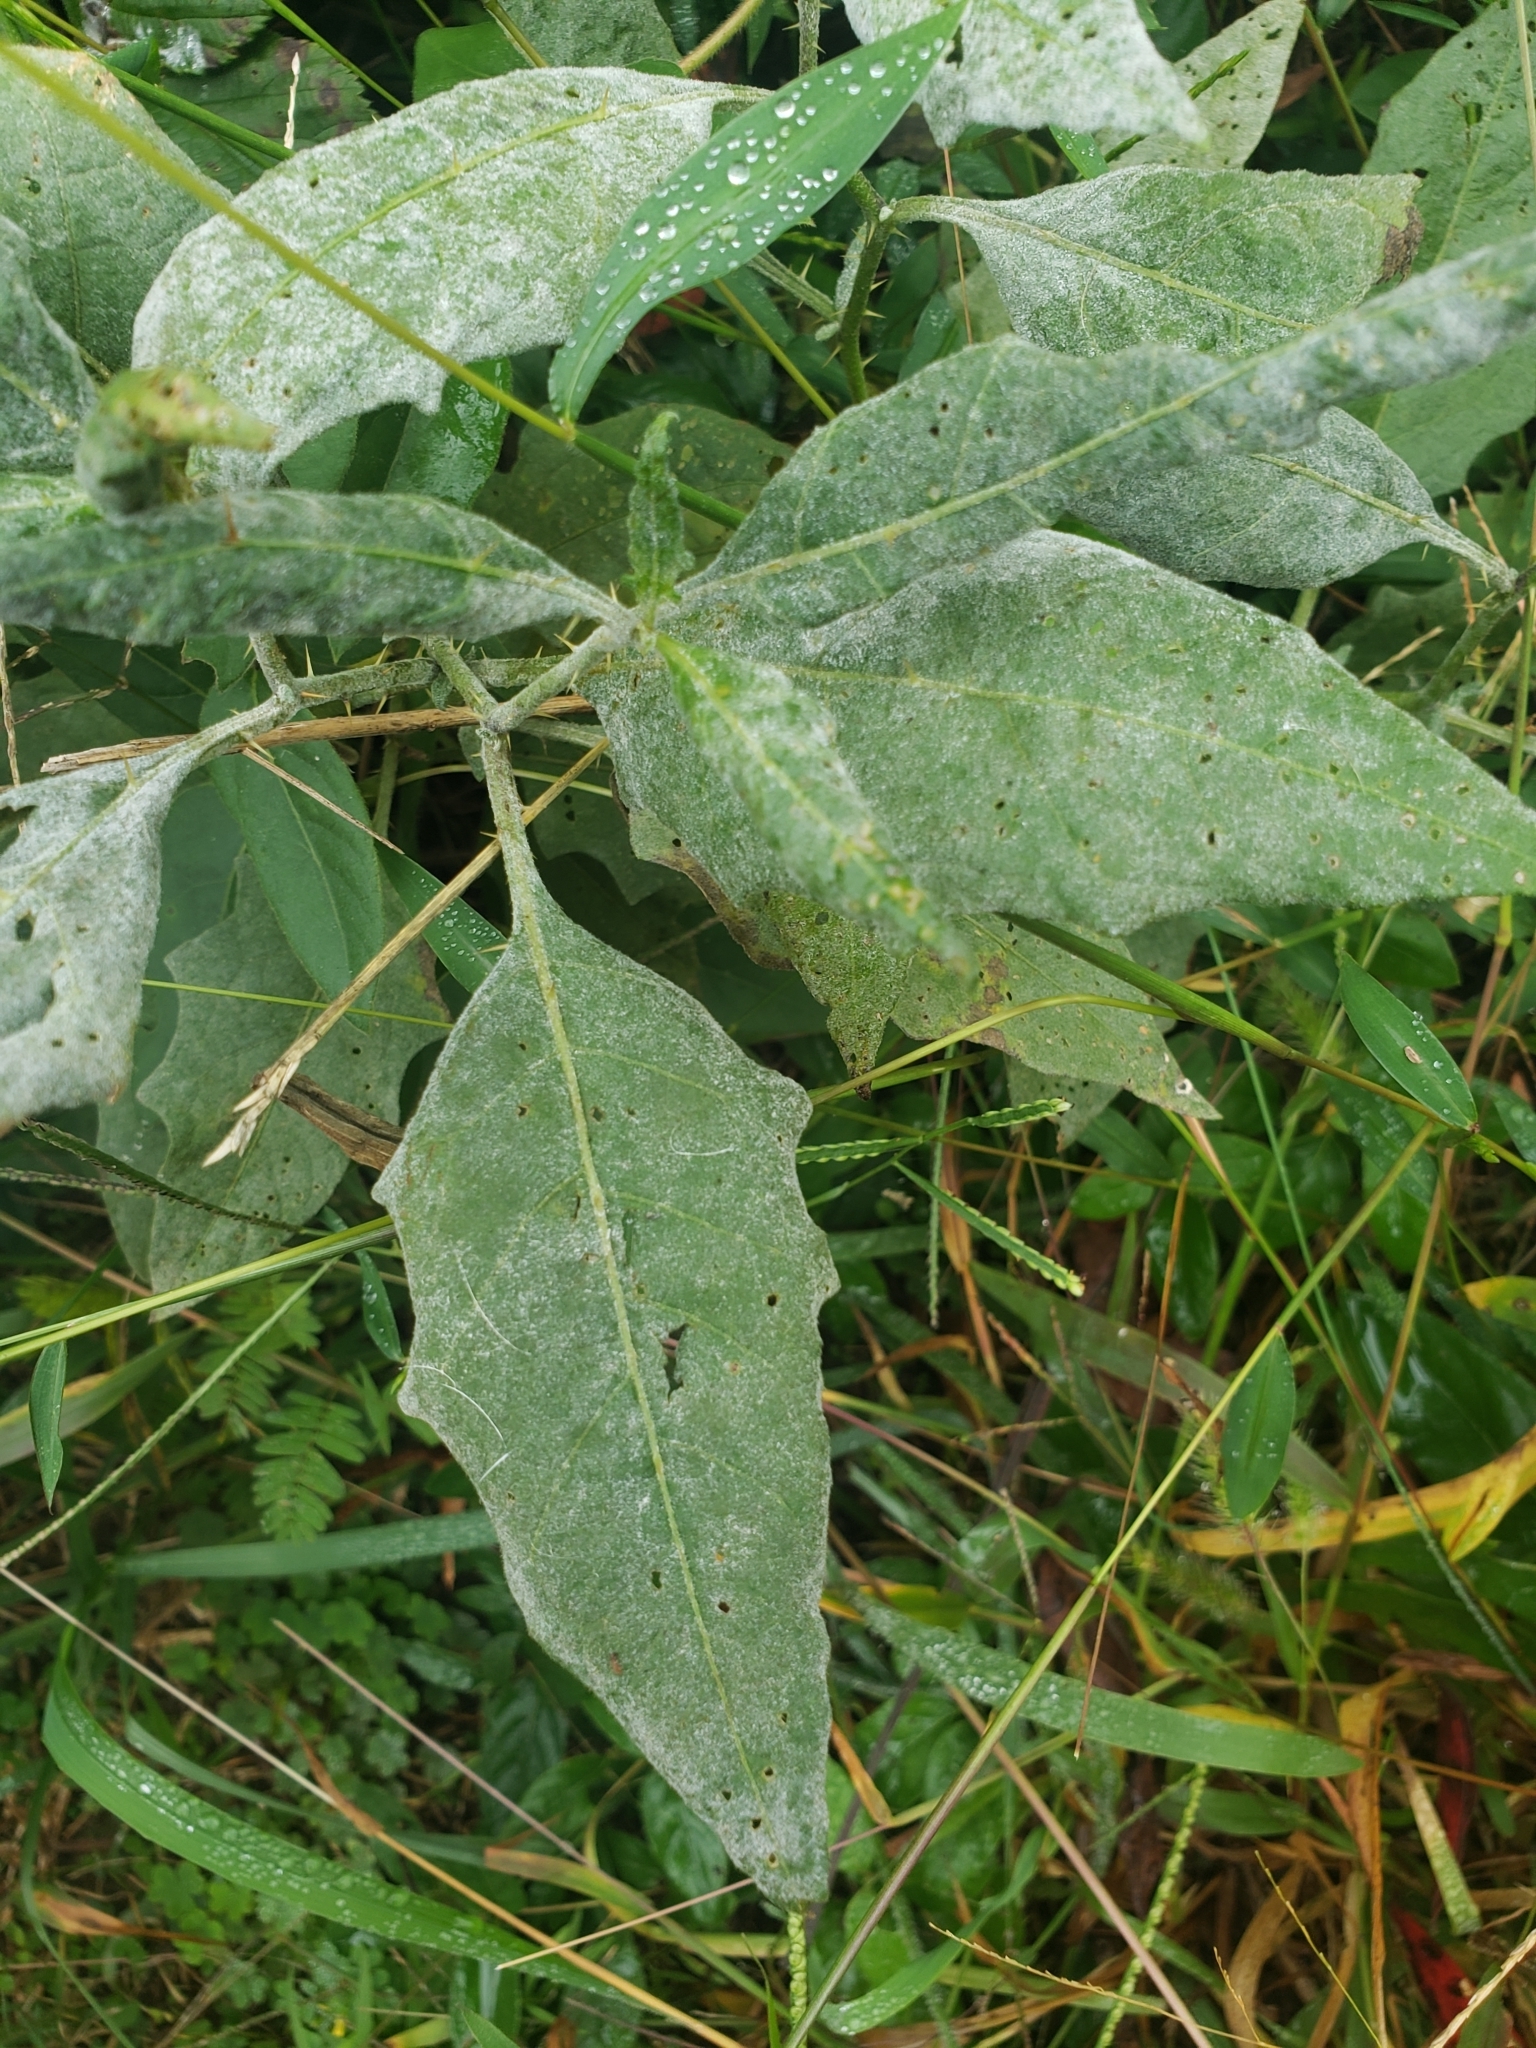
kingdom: Fungi
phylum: Ascomycota
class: Leotiomycetes
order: Helotiales
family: Erysiphaceae
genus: Podosphaera
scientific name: Podosphaera solanacearum
